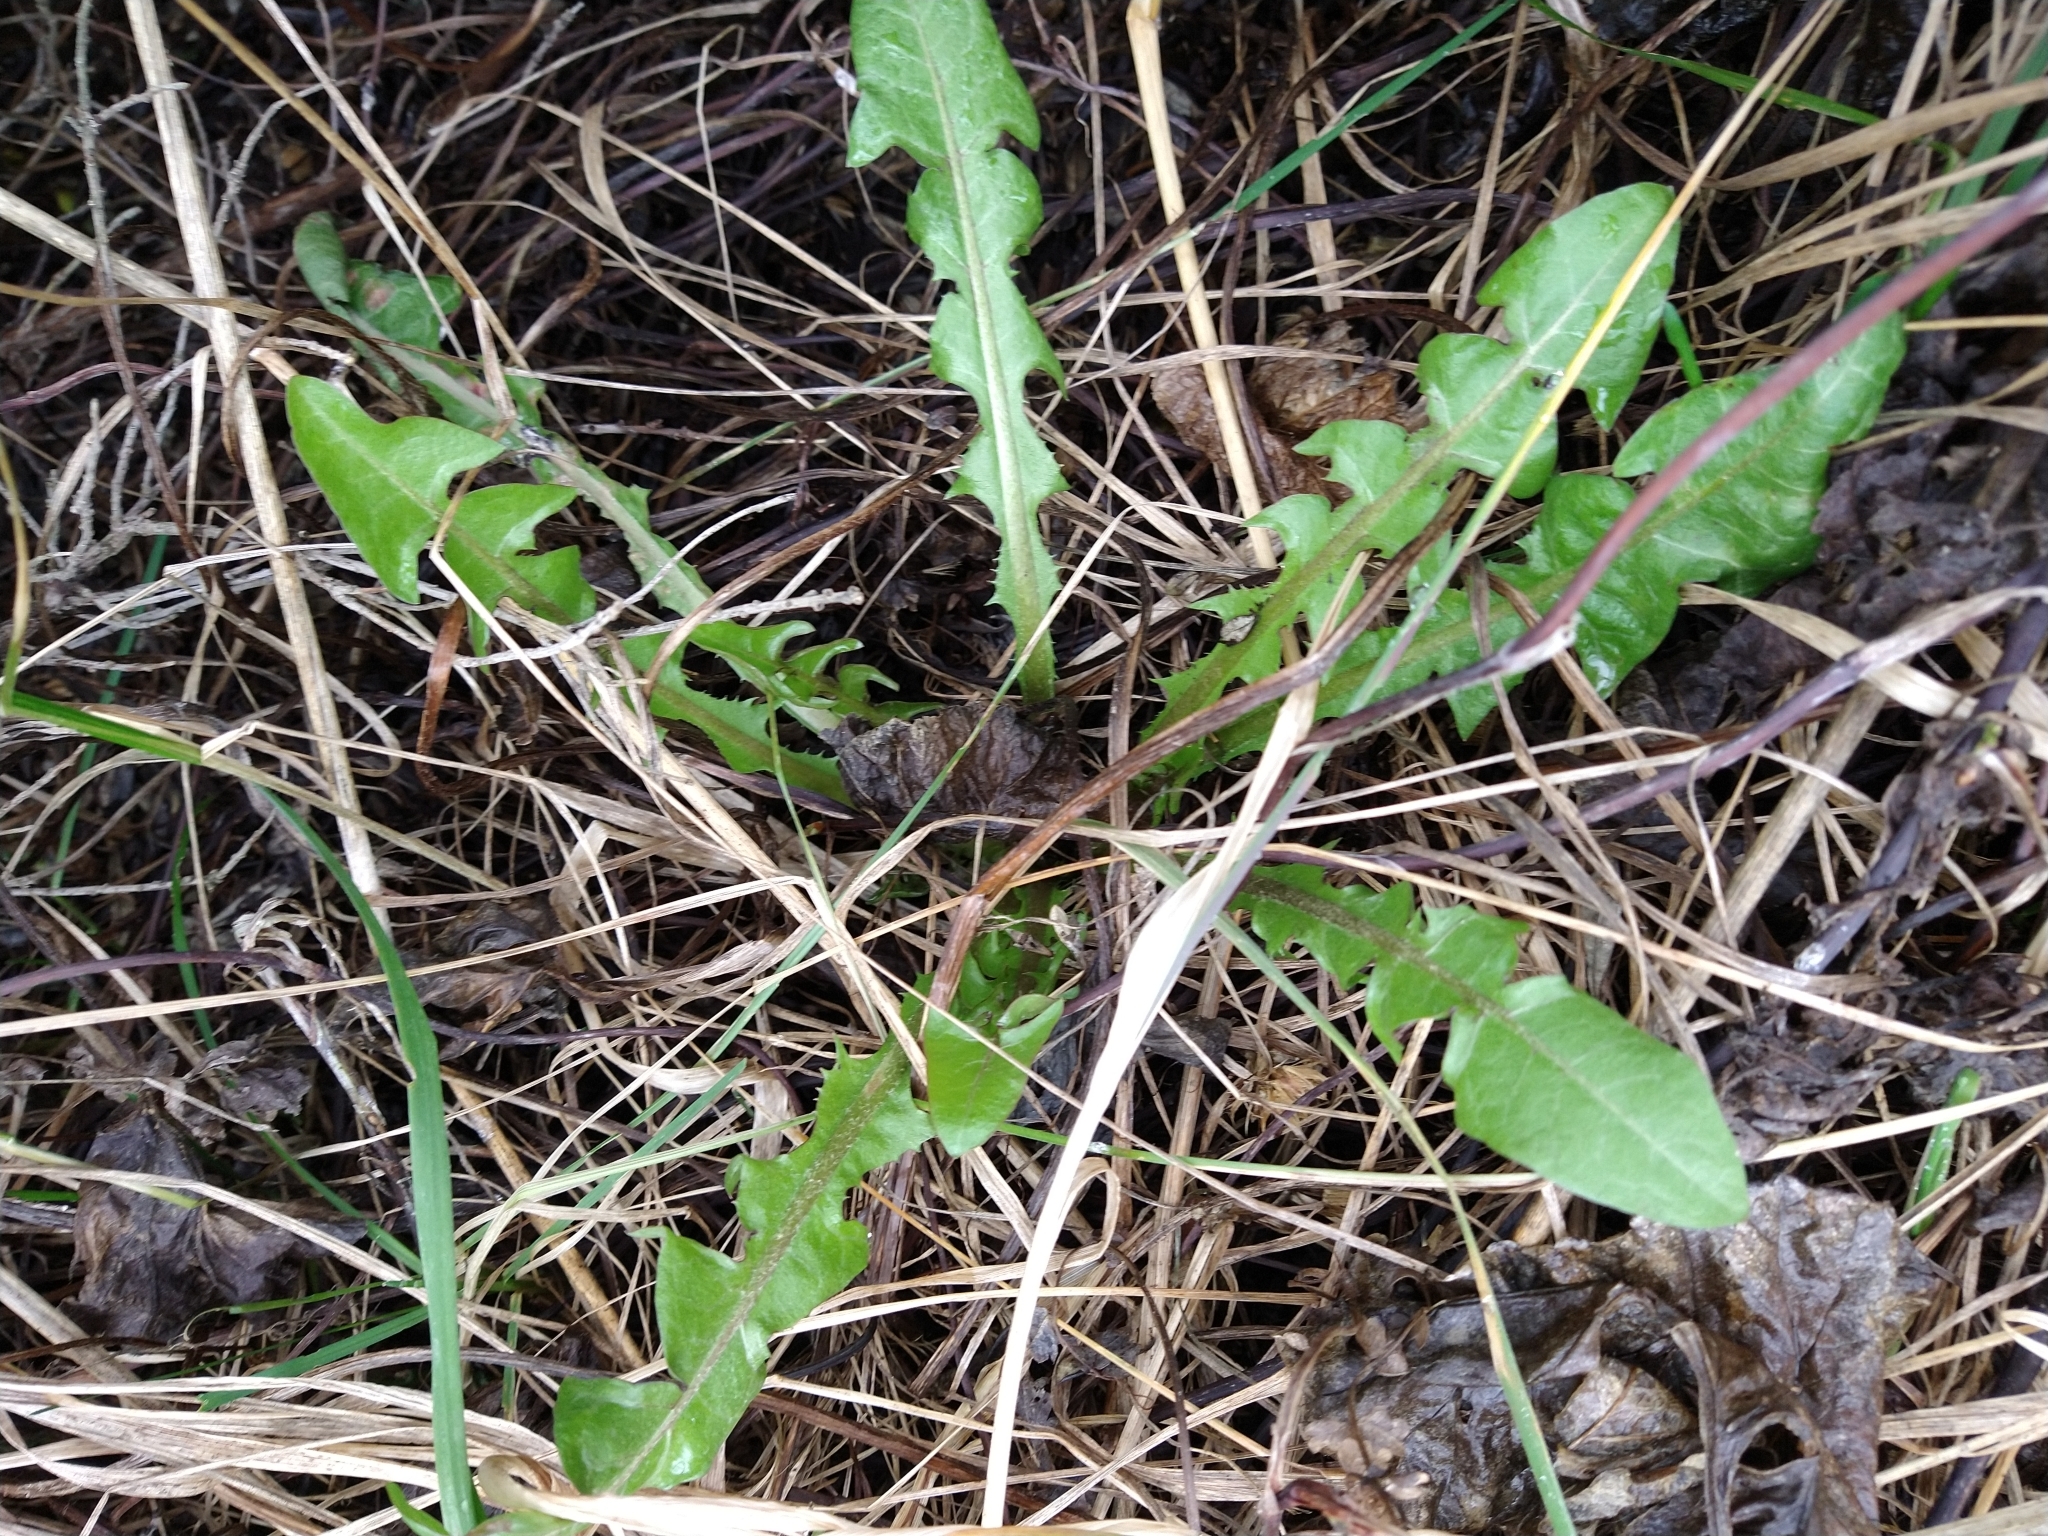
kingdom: Plantae
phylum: Tracheophyta
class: Magnoliopsida
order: Asterales
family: Asteraceae
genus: Taraxacum
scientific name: Taraxacum officinale
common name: Common dandelion
